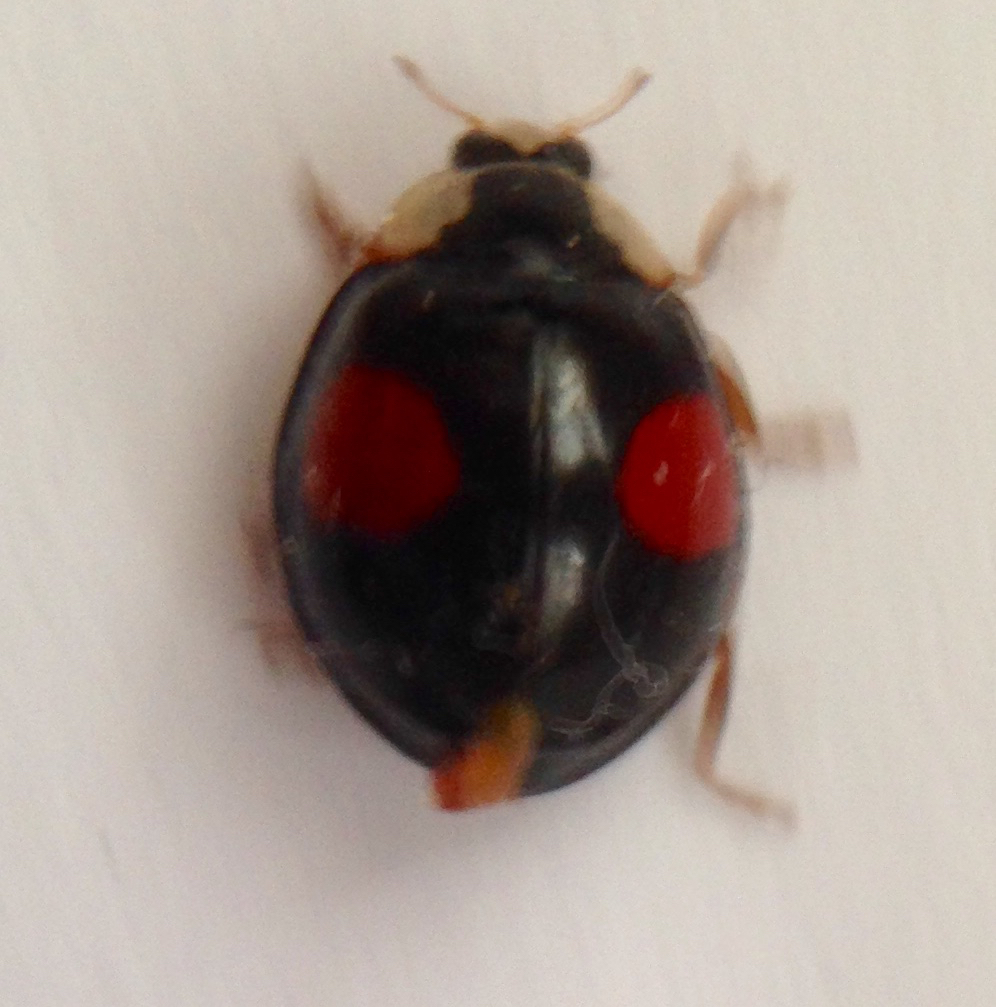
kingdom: Animalia
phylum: Arthropoda
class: Insecta
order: Coleoptera
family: Coccinellidae
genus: Harmonia
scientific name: Harmonia axyridis
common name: Harlequin ladybird
